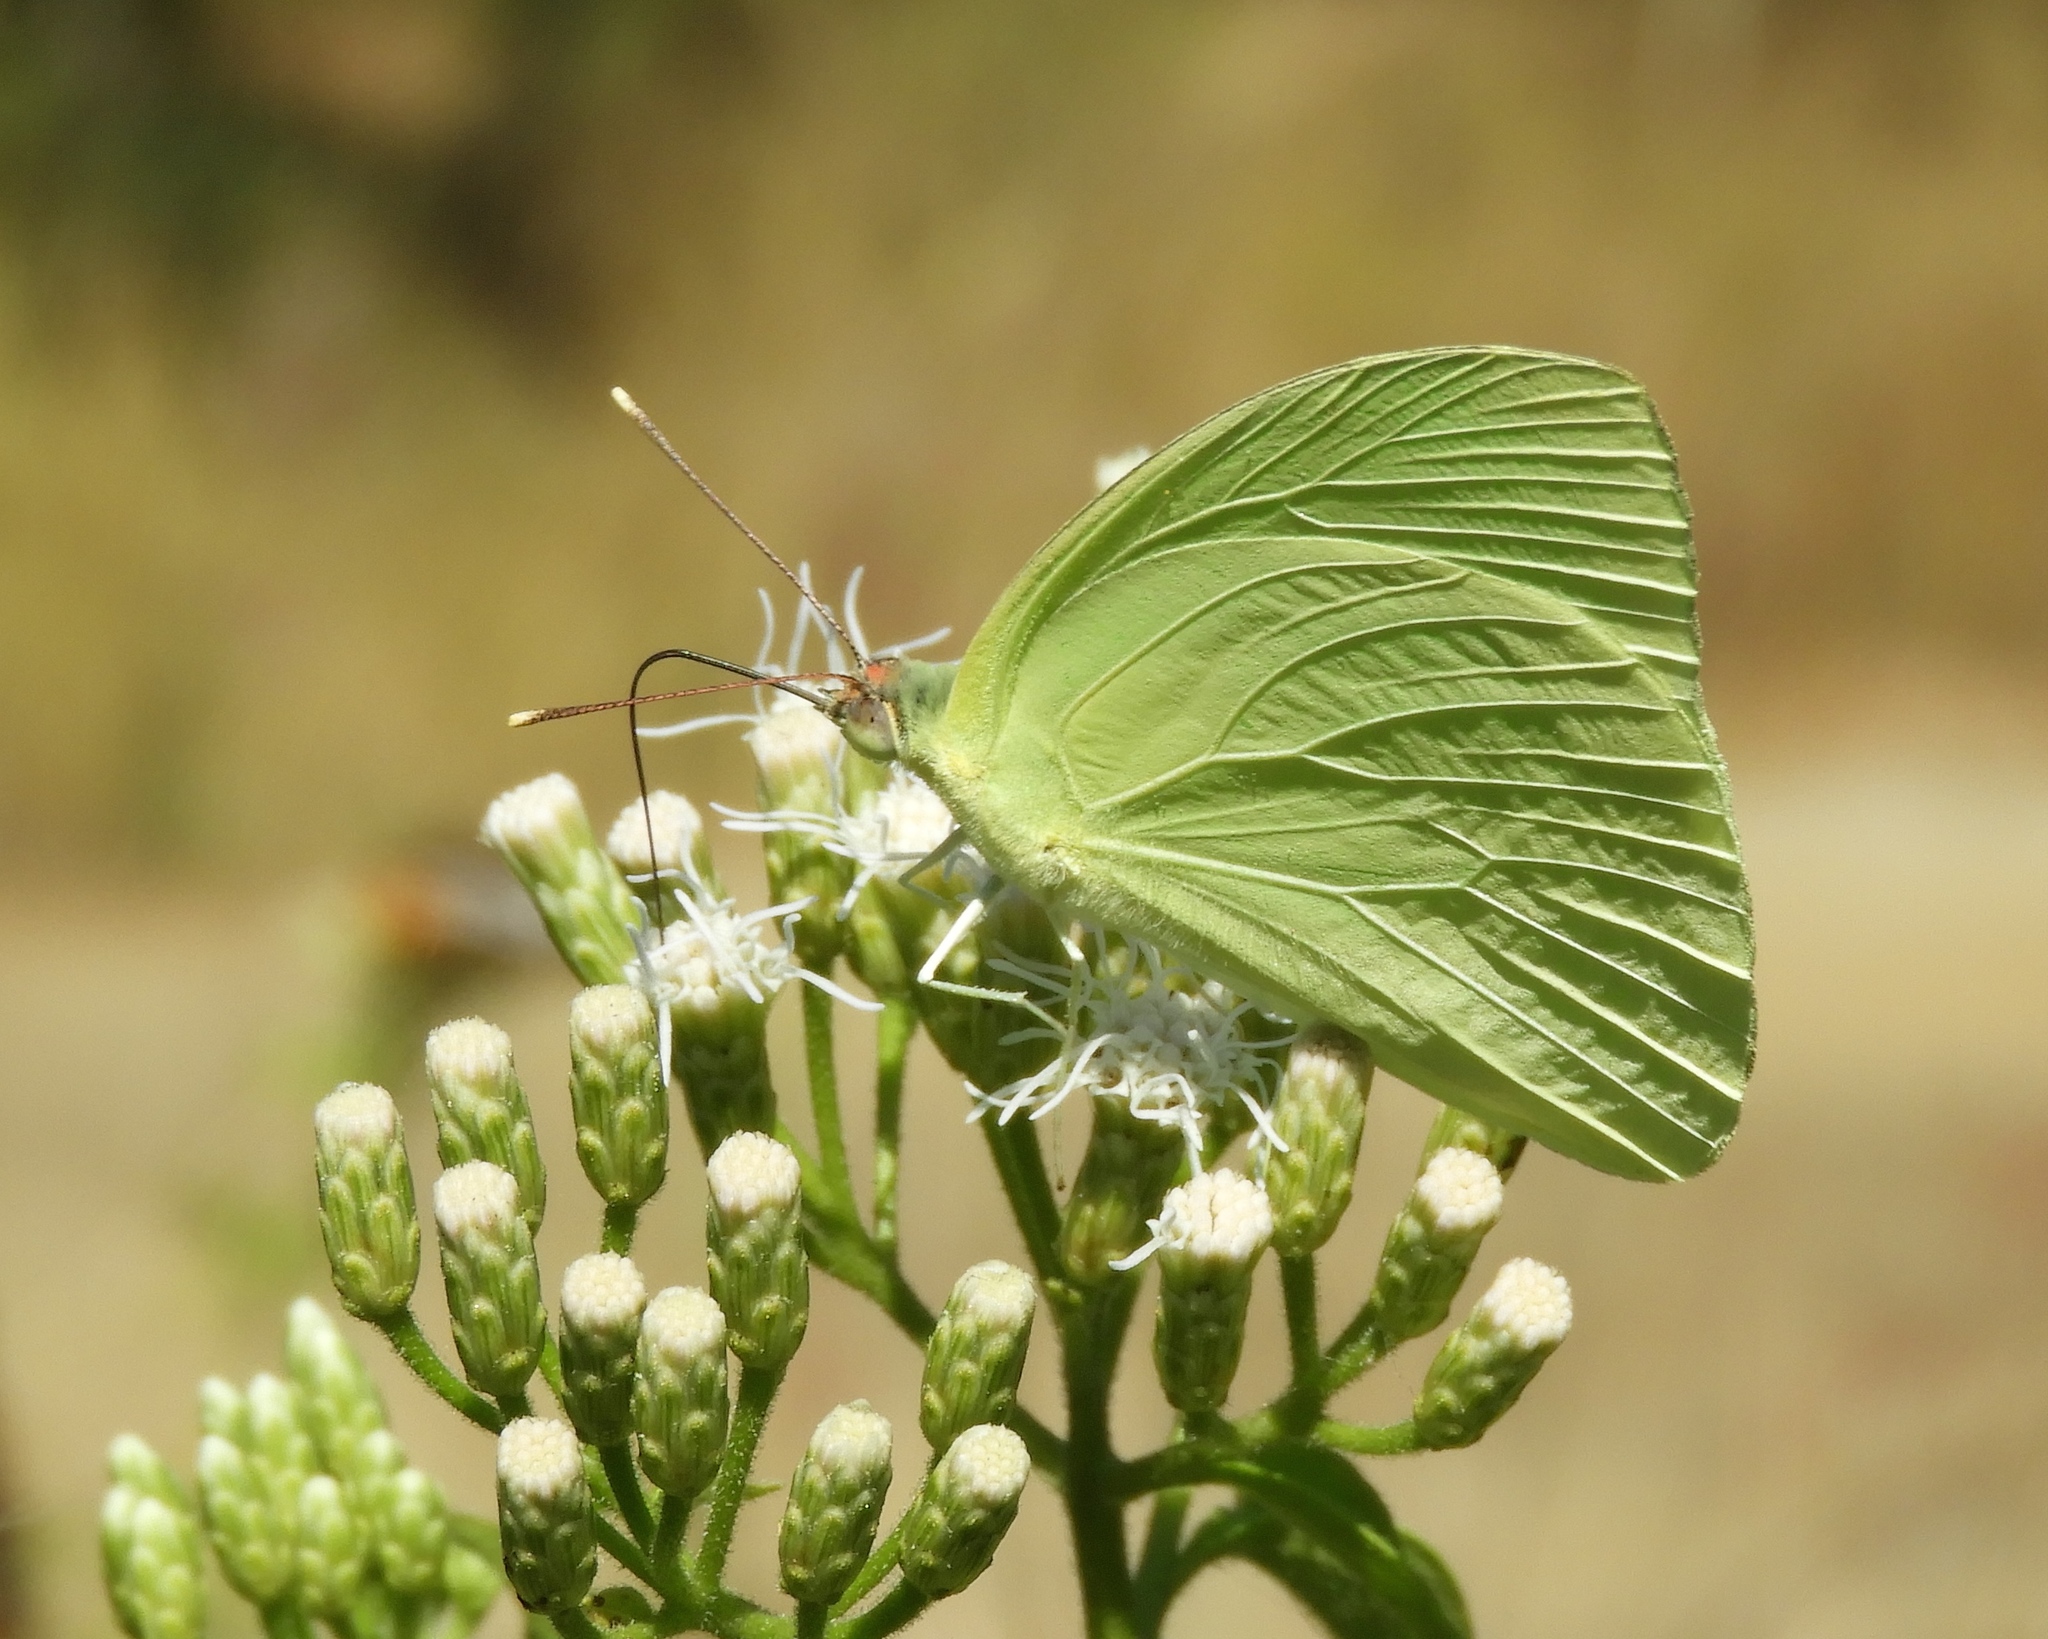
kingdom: Animalia
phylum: Arthropoda
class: Insecta
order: Lepidoptera
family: Pieridae
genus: Aphrissa
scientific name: Aphrissa statira
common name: Statira sulphur
